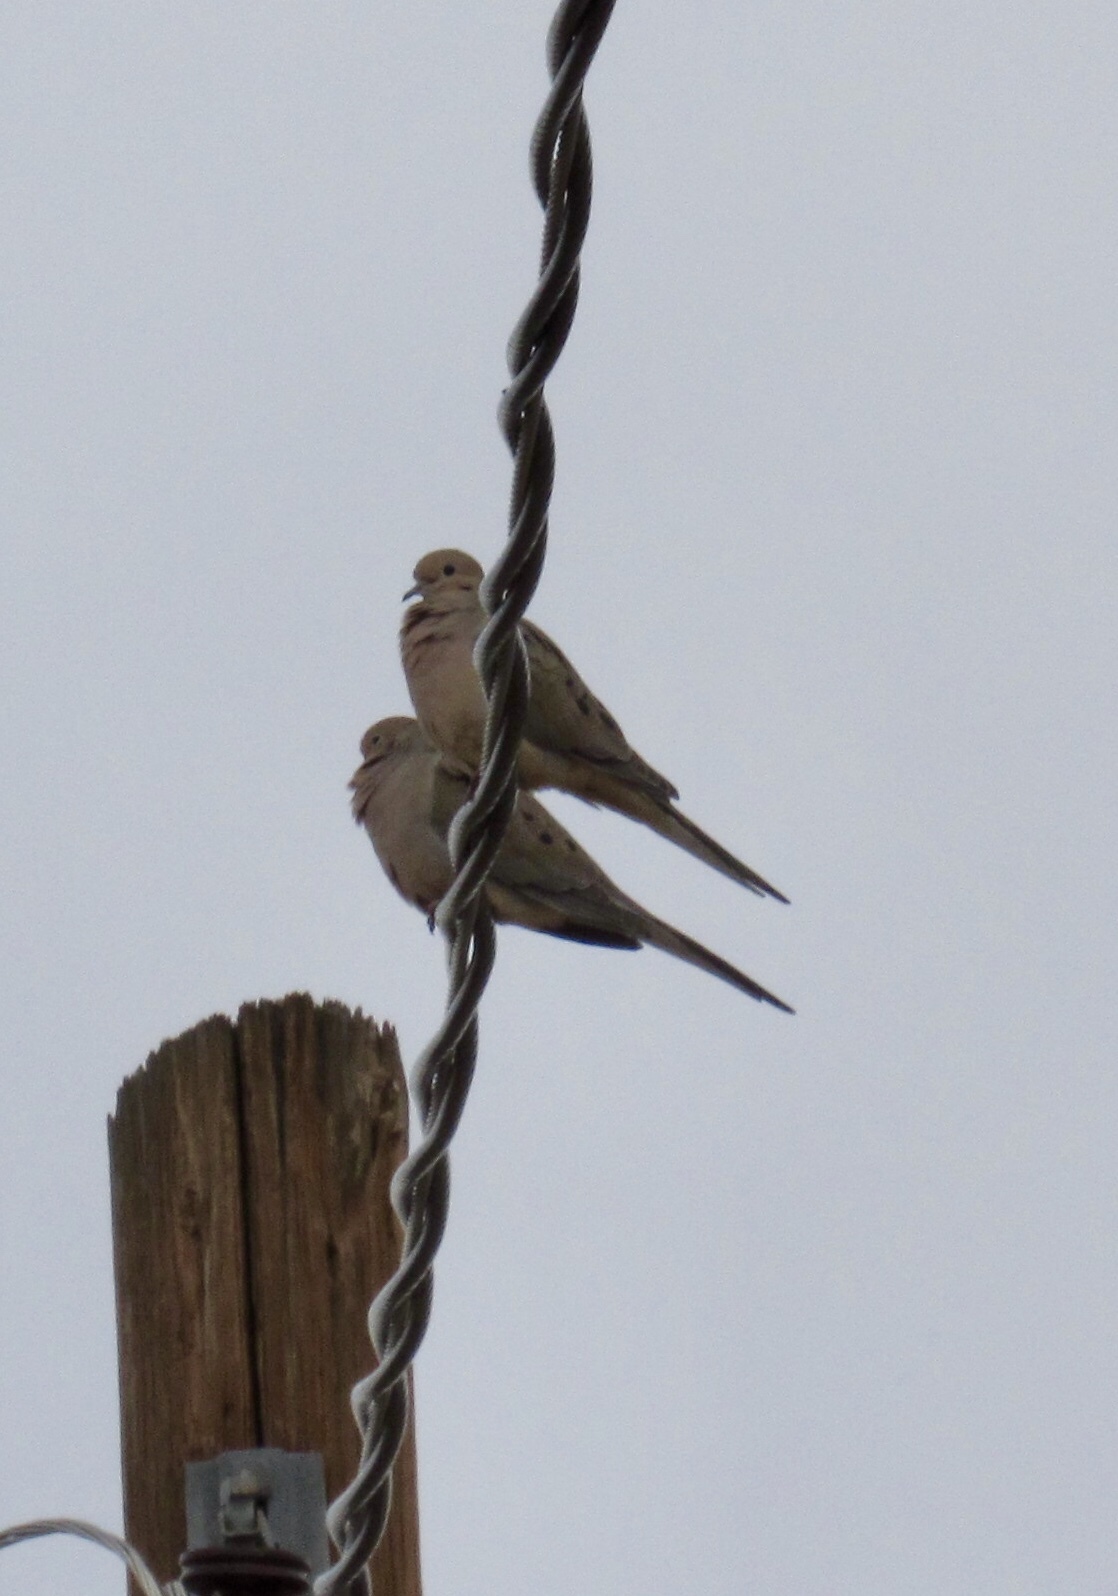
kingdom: Animalia
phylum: Chordata
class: Aves
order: Columbiformes
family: Columbidae
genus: Zenaida
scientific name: Zenaida macroura
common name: Mourning dove
